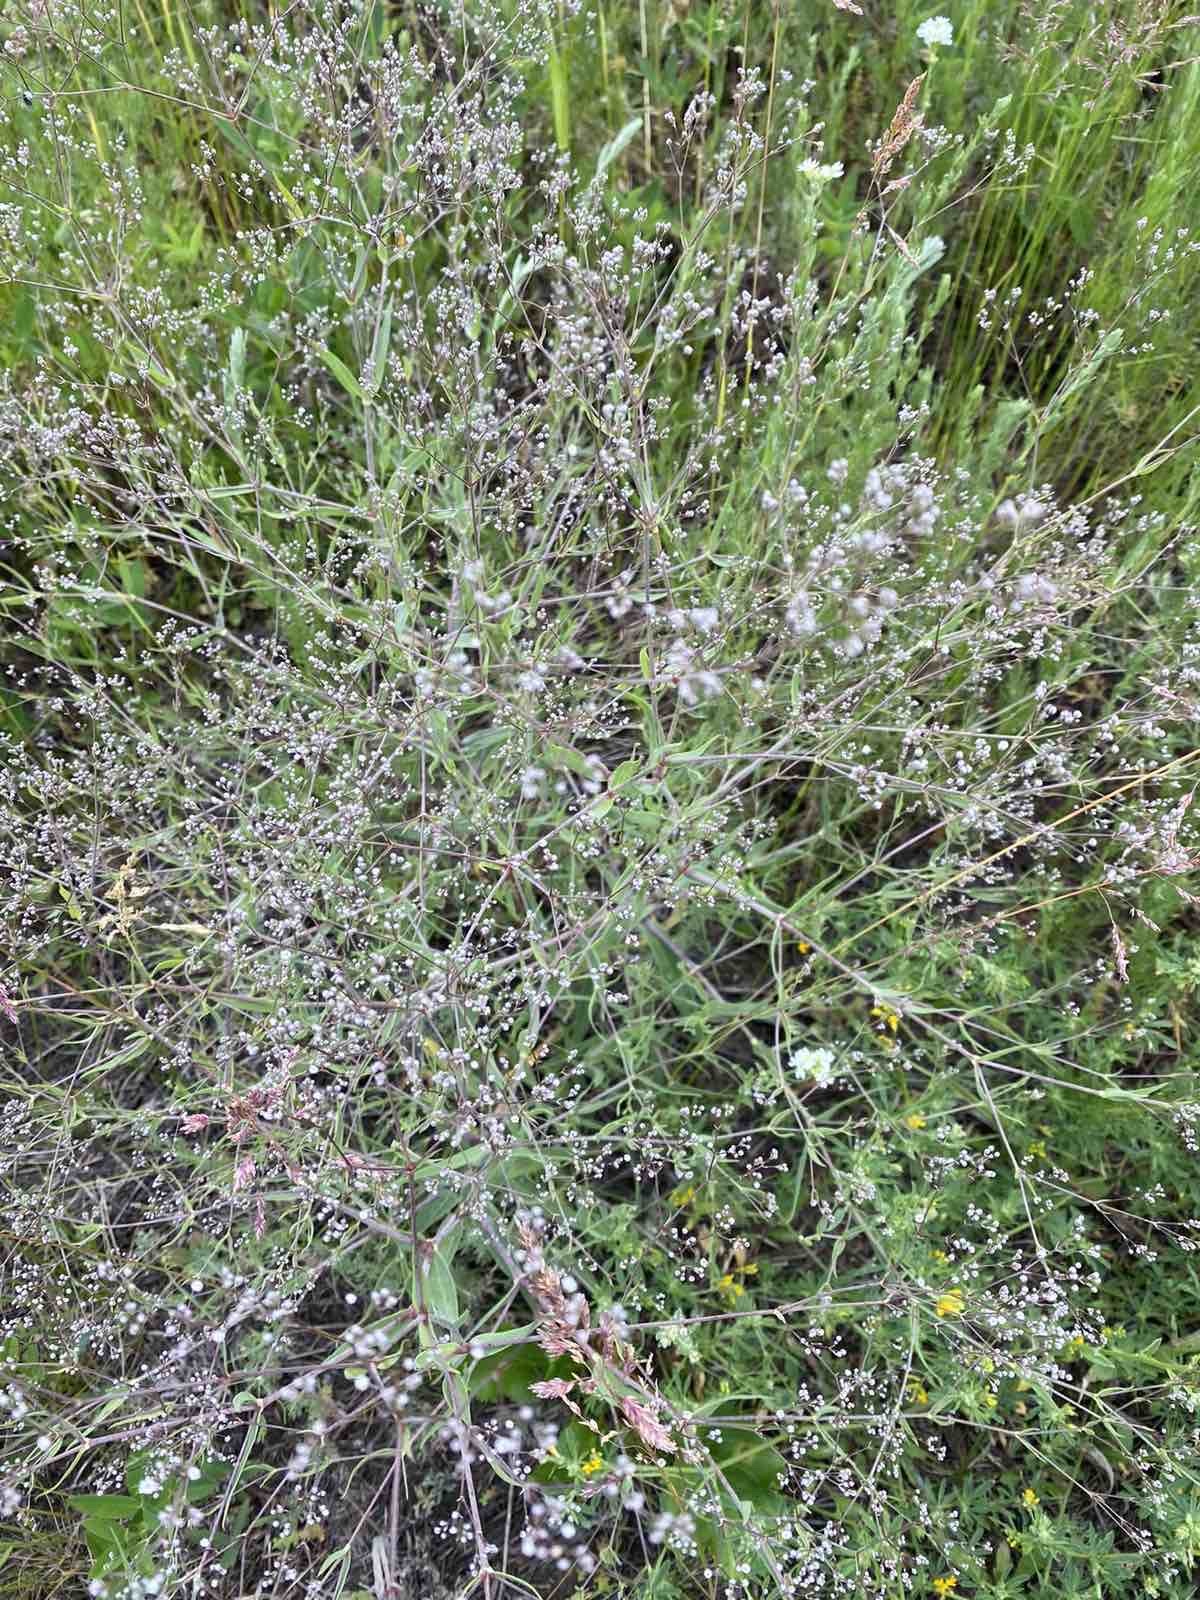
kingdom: Plantae
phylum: Tracheophyta
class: Magnoliopsida
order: Caryophyllales
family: Caryophyllaceae
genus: Gypsophila
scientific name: Gypsophila paniculata
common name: Baby's-breath
